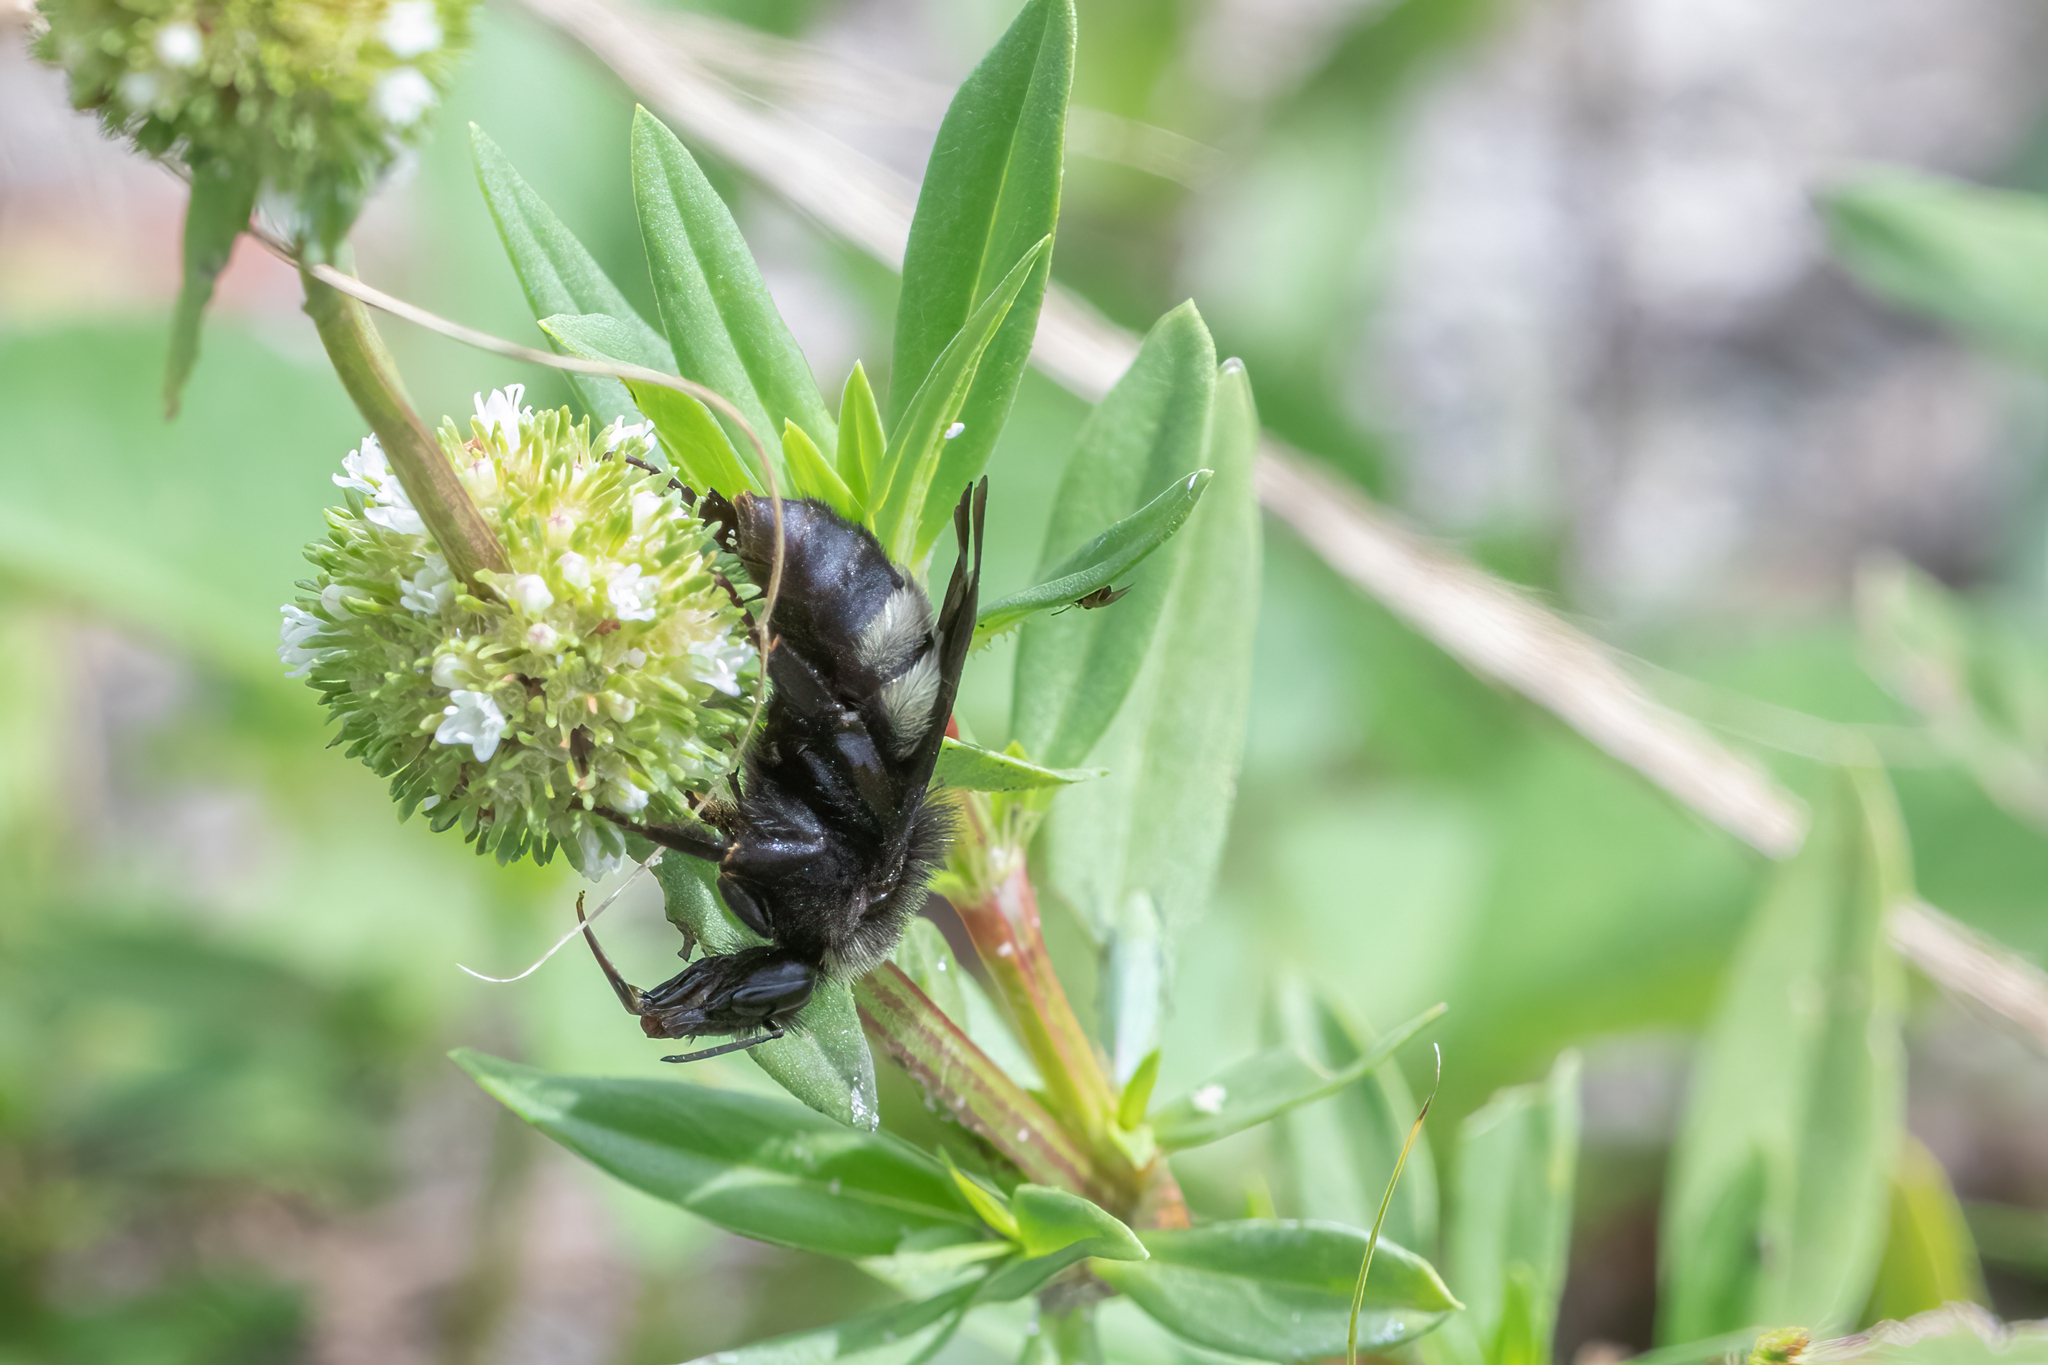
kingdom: Animalia
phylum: Arthropoda
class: Insecta
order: Hymenoptera
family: Apidae
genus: Bombus
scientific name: Bombus pensylvanicus
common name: Bumble bee
